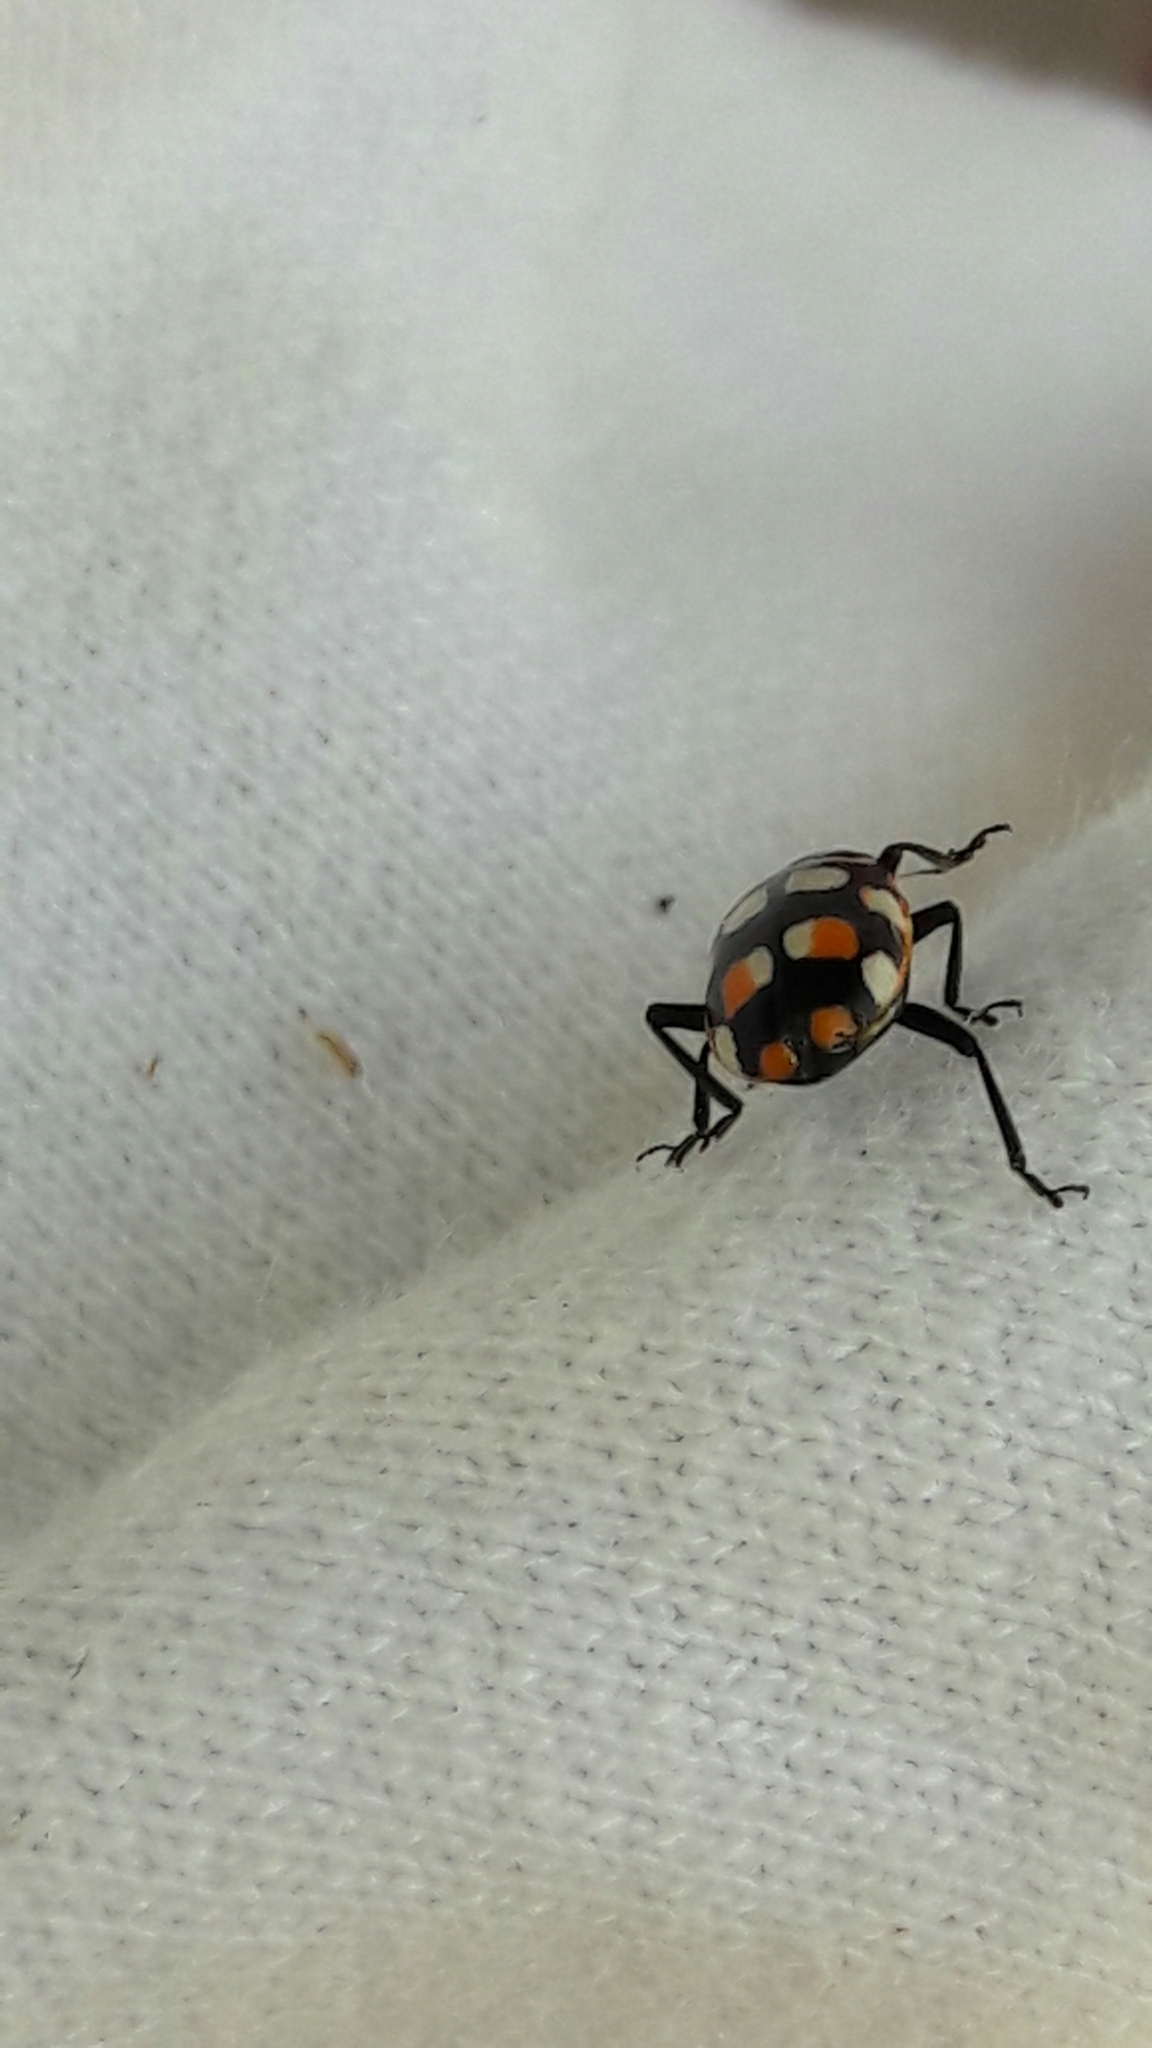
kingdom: Animalia
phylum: Arthropoda
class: Insecta
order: Coleoptera
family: Coccinellidae
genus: Eriopis
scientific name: Eriopis connexa
